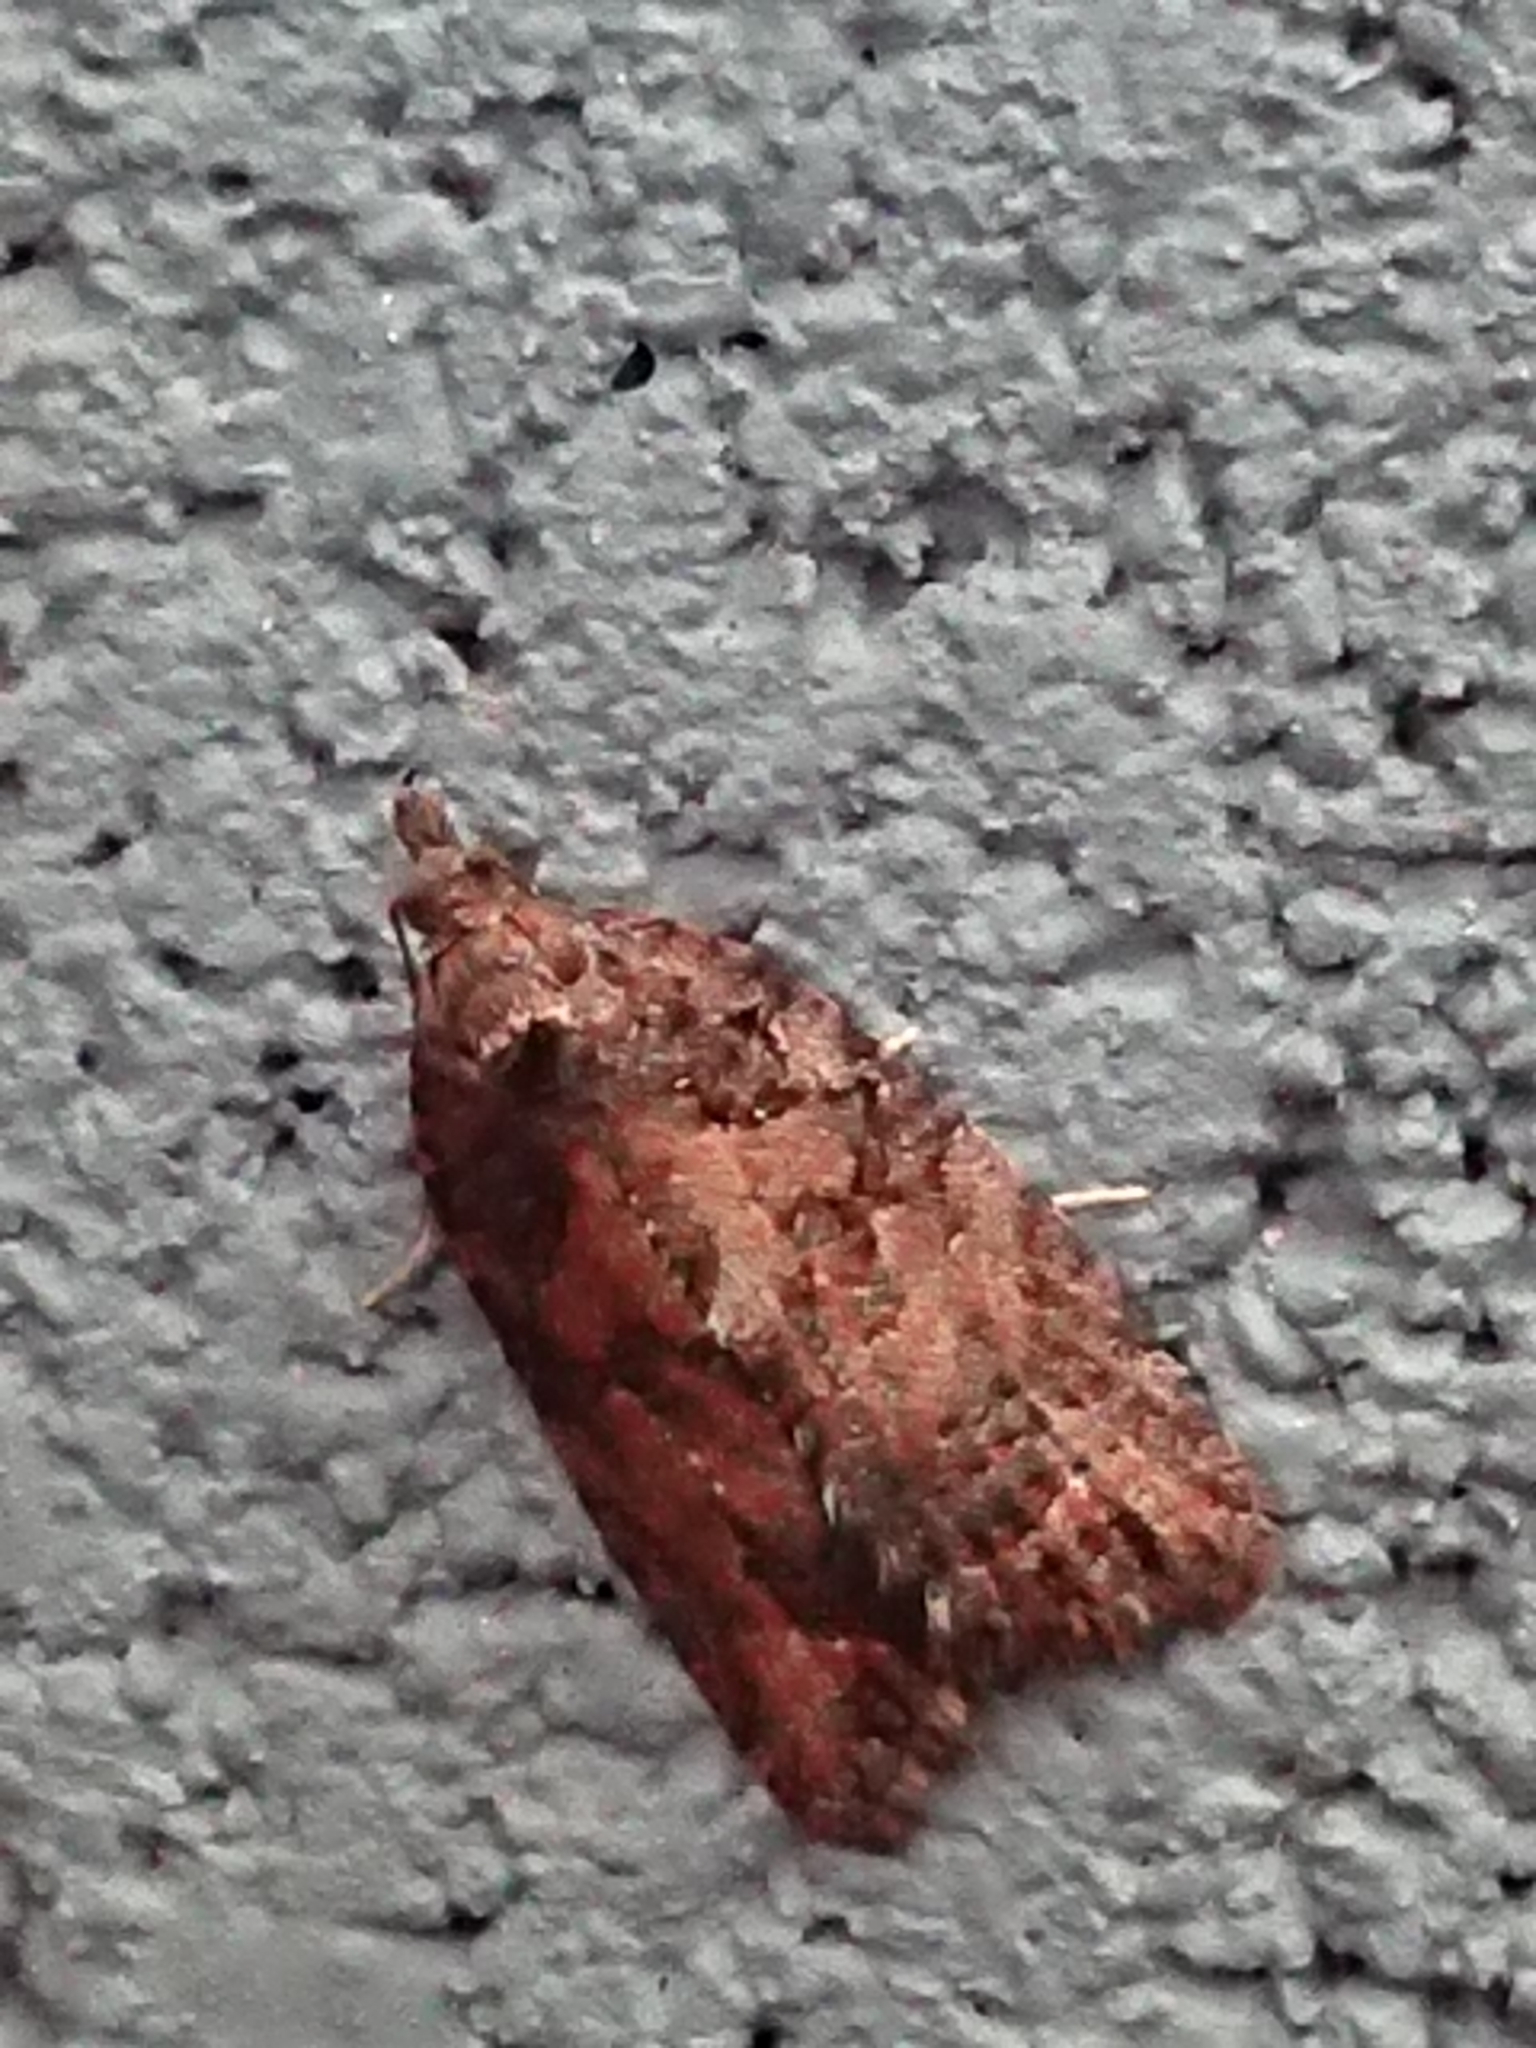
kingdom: Animalia
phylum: Arthropoda
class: Insecta
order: Lepidoptera
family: Tortricidae
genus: Capua
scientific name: Capua intractana
